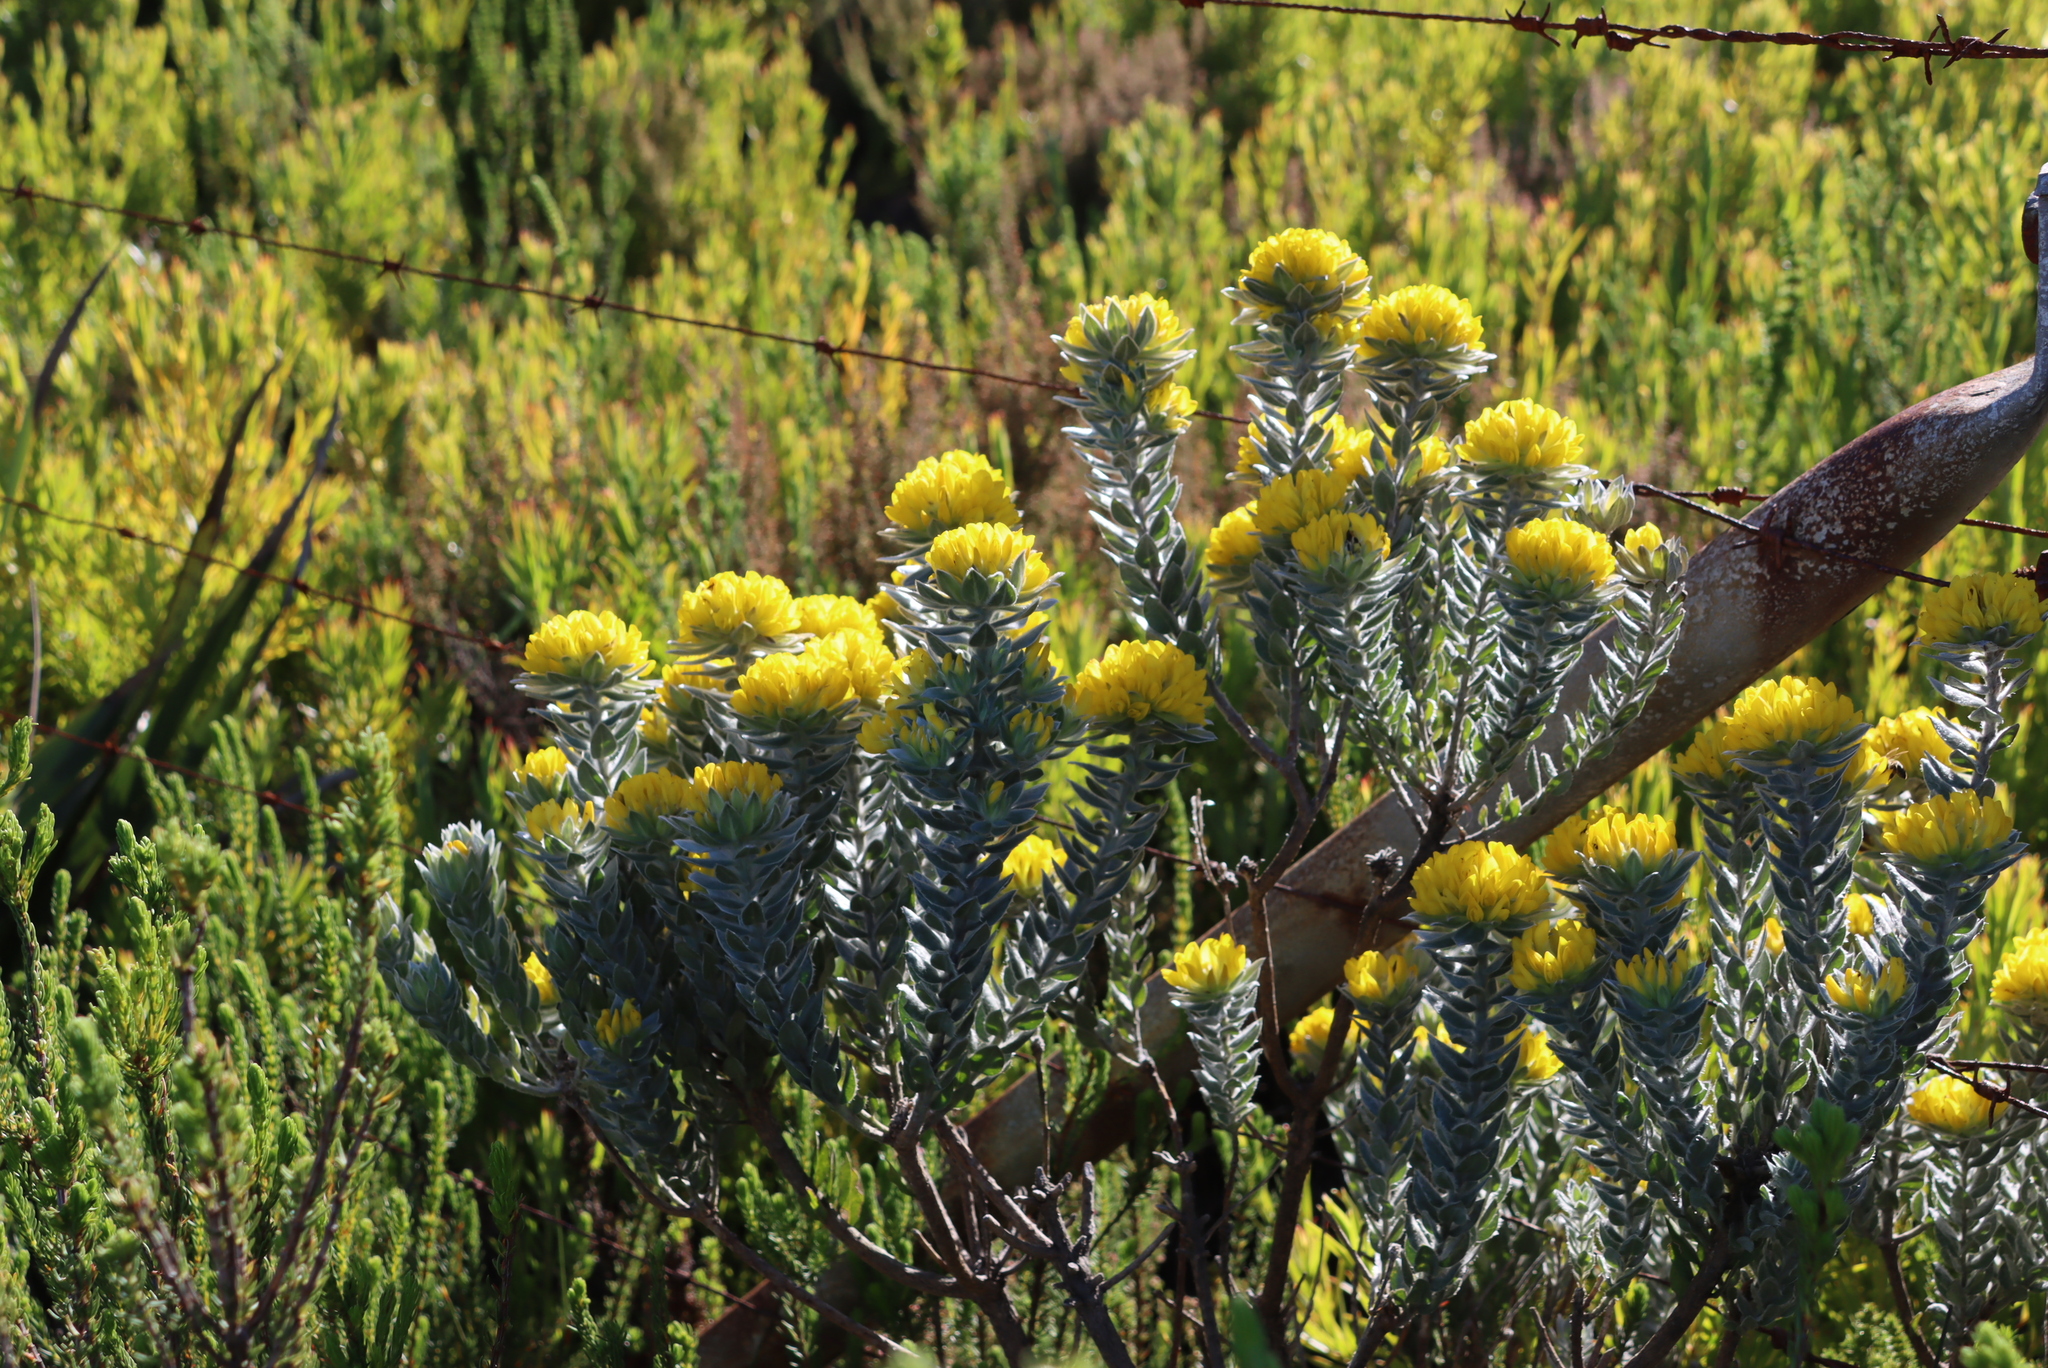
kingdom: Plantae
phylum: Tracheophyta
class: Magnoliopsida
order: Fabales
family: Fabaceae
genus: Xiphotheca
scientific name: Xiphotheca fruticosa
